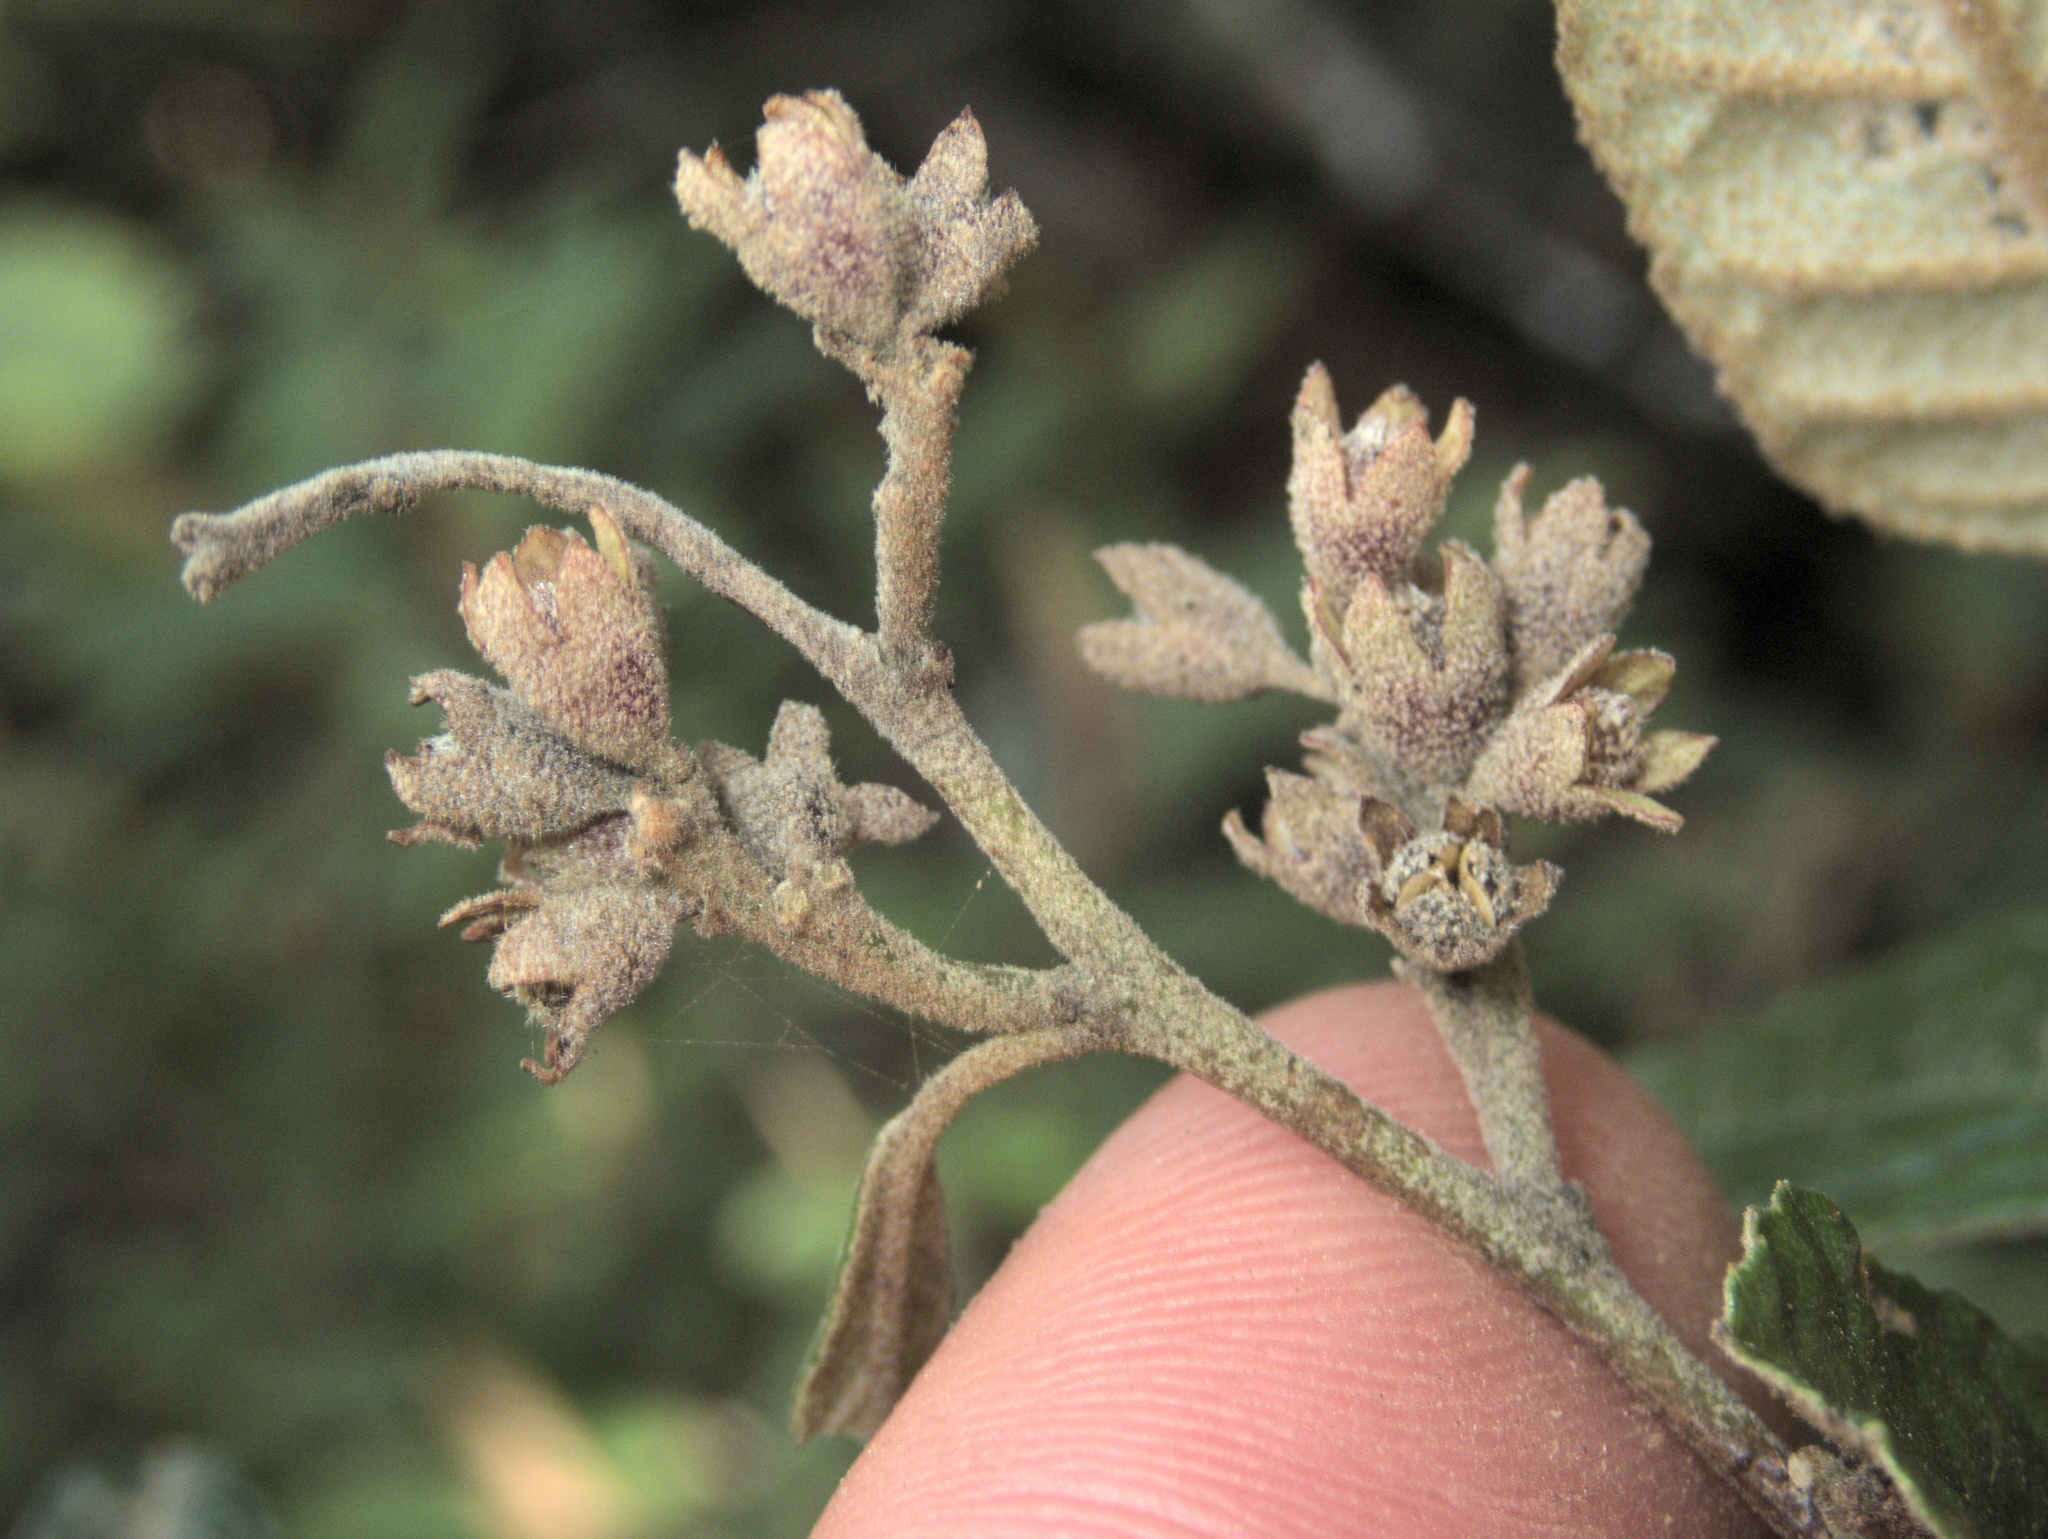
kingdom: Plantae
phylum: Tracheophyta
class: Magnoliopsida
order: Rosales
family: Rhamnaceae
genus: Pomaderris
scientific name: Pomaderris paniculosa
